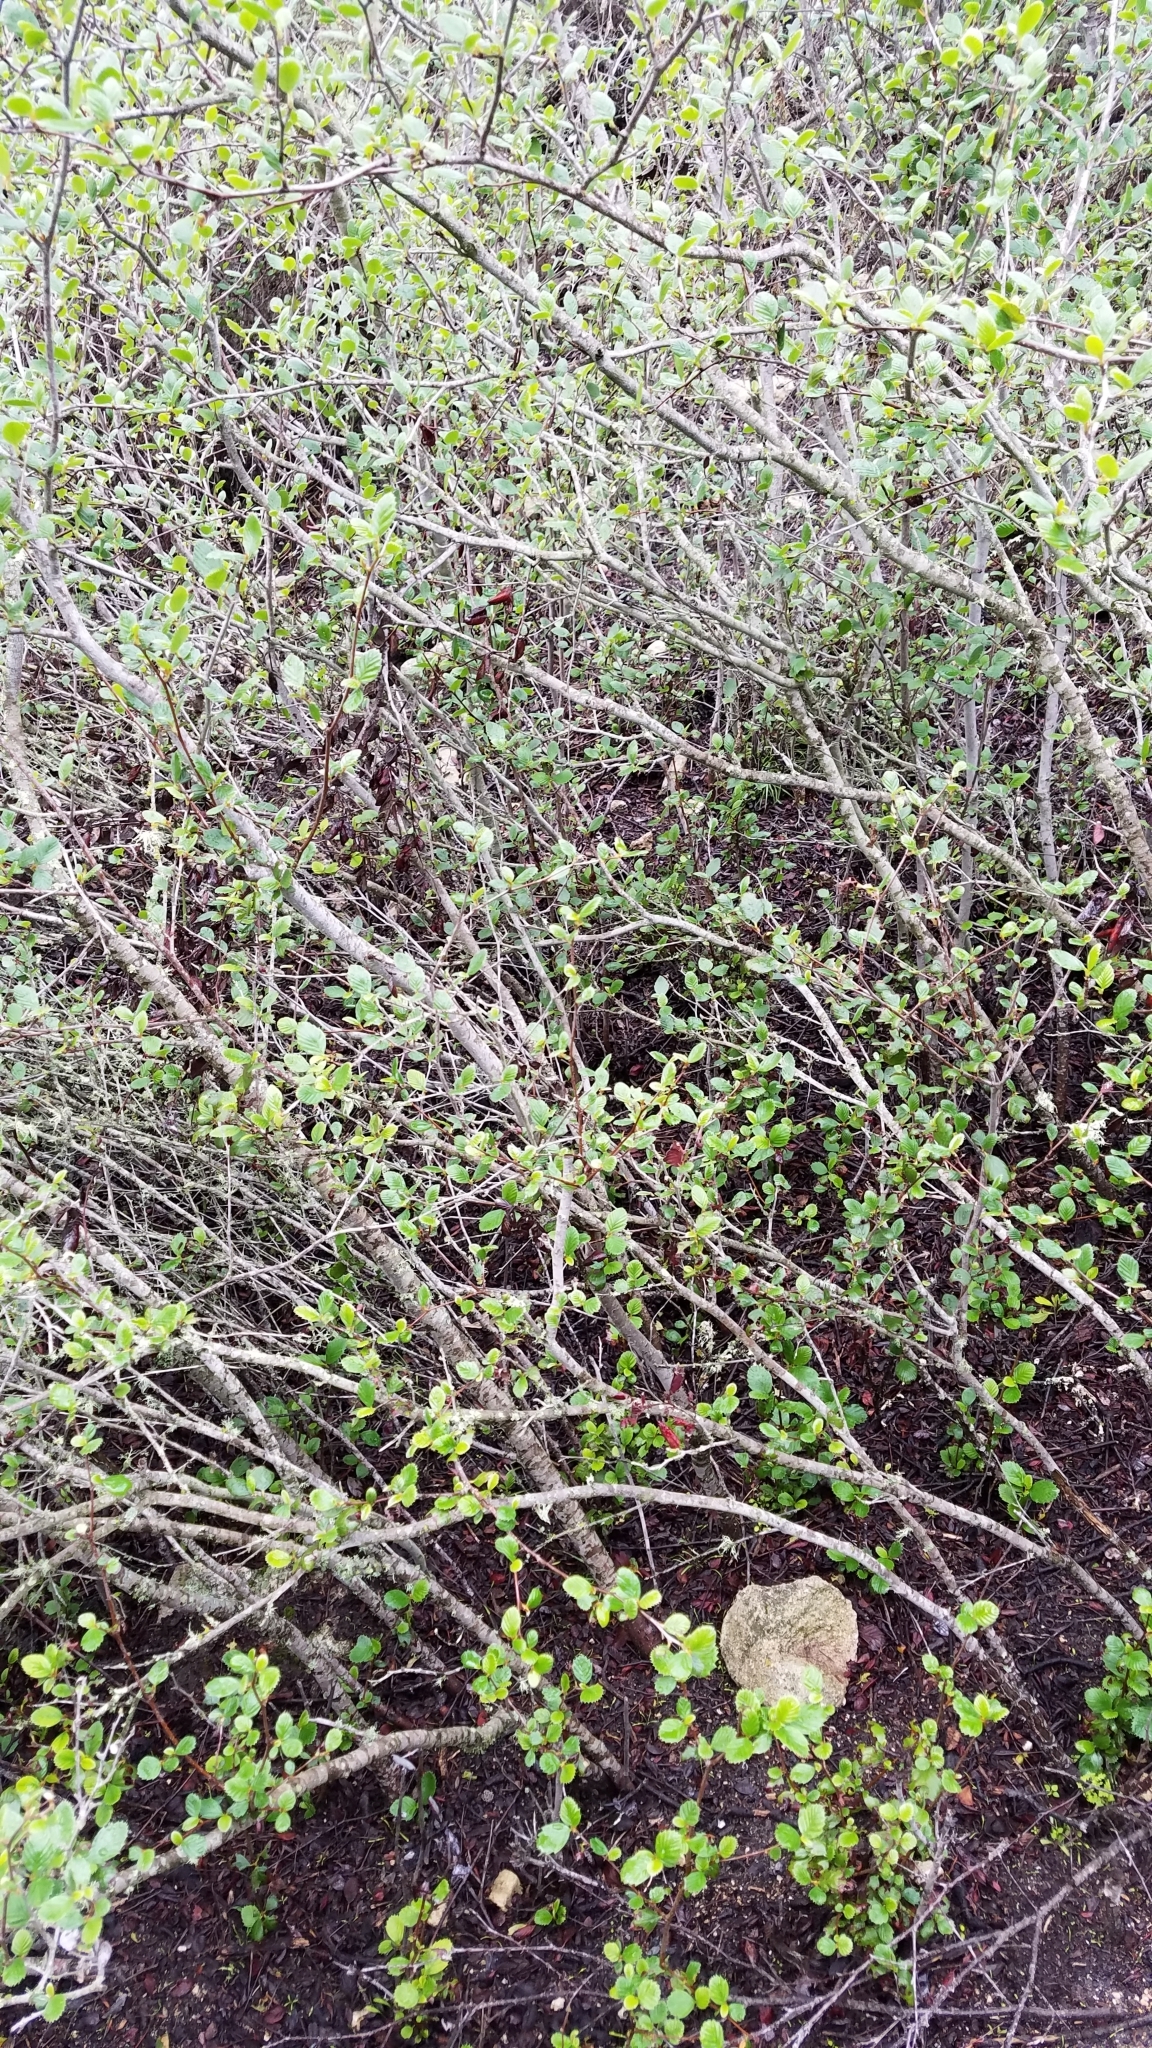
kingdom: Plantae
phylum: Tracheophyta
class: Magnoliopsida
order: Rosales
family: Rosaceae
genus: Cercocarpus
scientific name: Cercocarpus betuloides
